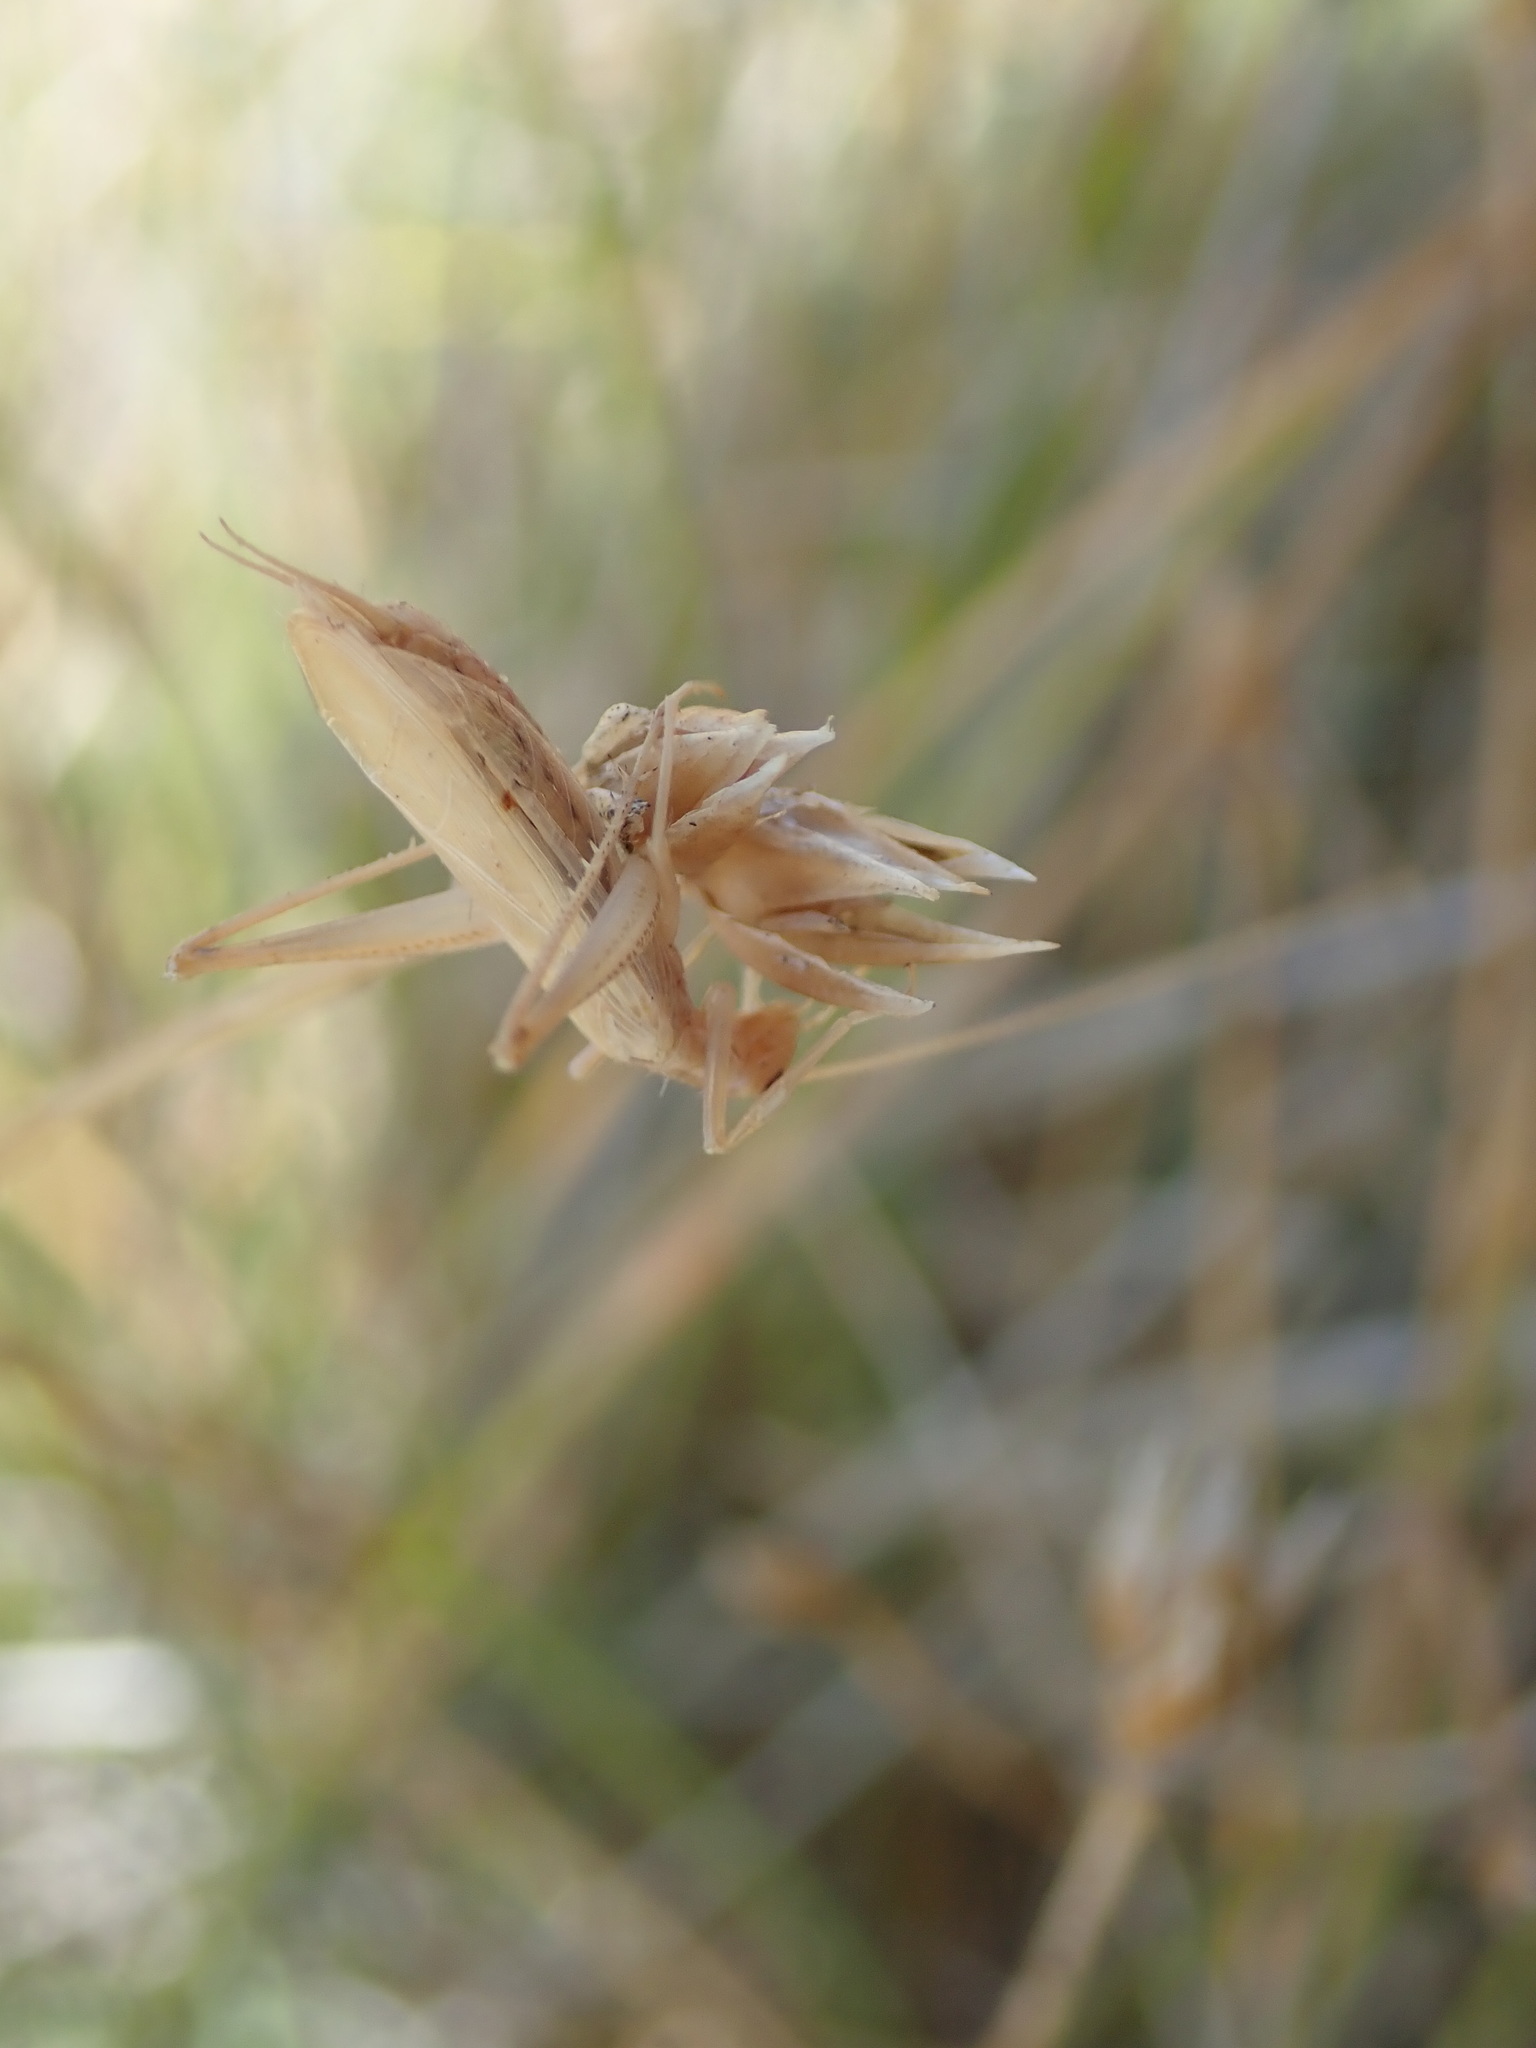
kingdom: Animalia
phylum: Arthropoda
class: Insecta
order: Orthoptera
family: Gryllidae
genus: Oecanthus
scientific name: Oecanthus pellucens
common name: Tree-cricket
